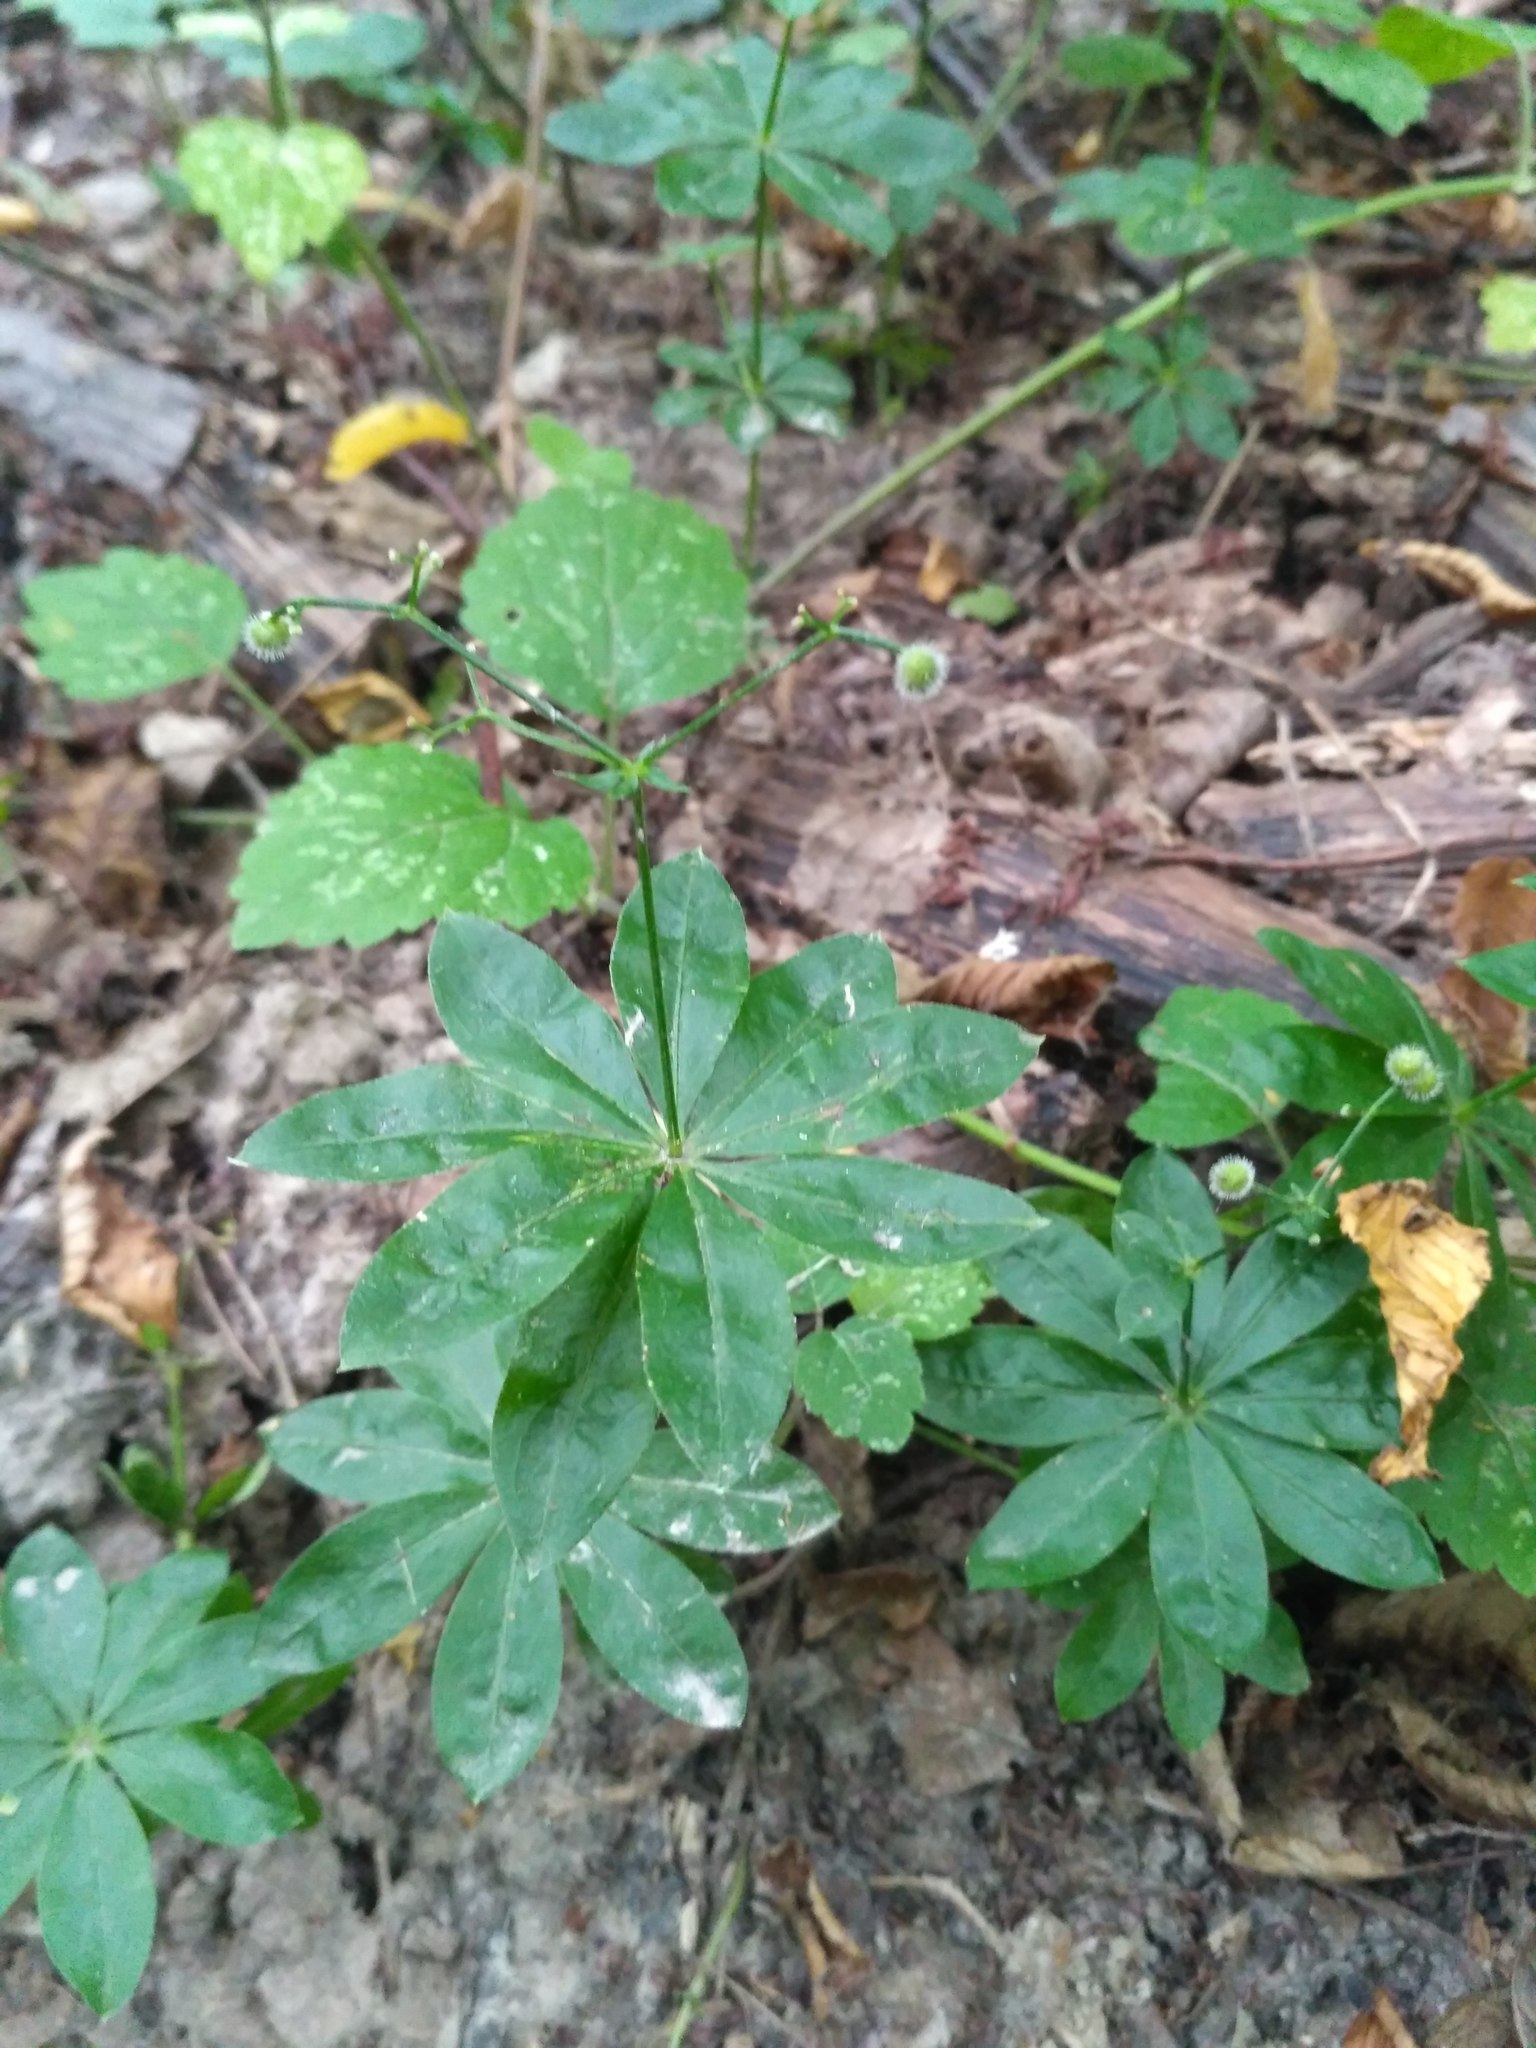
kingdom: Plantae
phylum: Tracheophyta
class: Magnoliopsida
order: Gentianales
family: Rubiaceae
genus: Galium
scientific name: Galium odoratum
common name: Sweet woodruff
